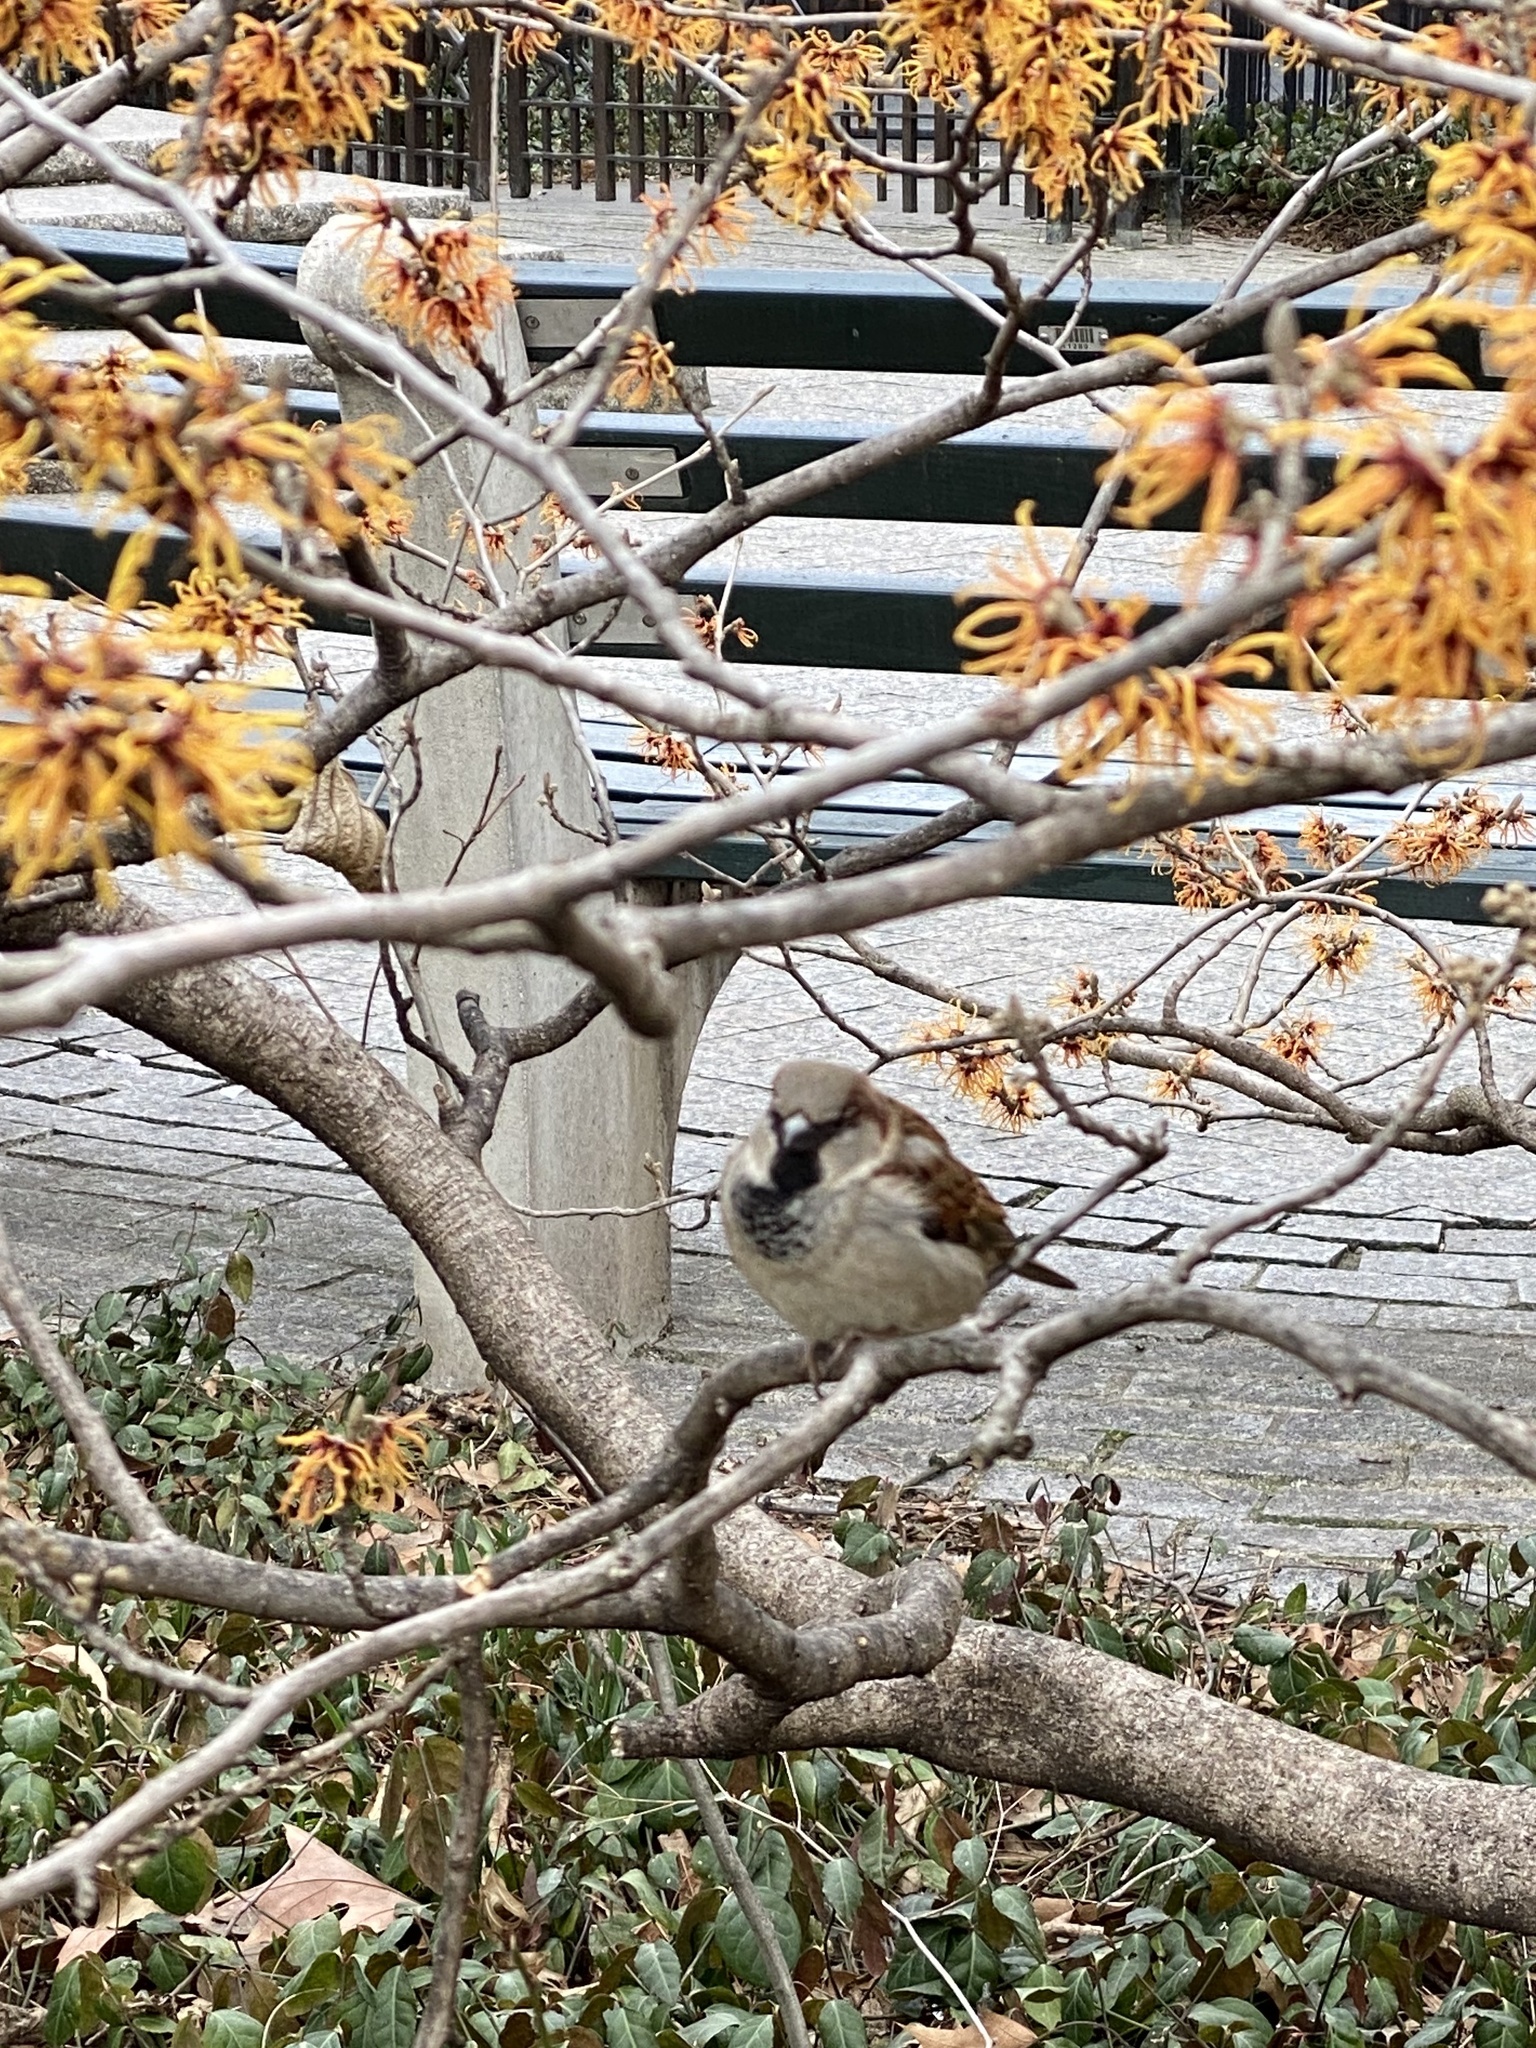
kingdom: Animalia
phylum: Chordata
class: Aves
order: Passeriformes
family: Passeridae
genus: Passer
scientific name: Passer domesticus
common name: House sparrow
